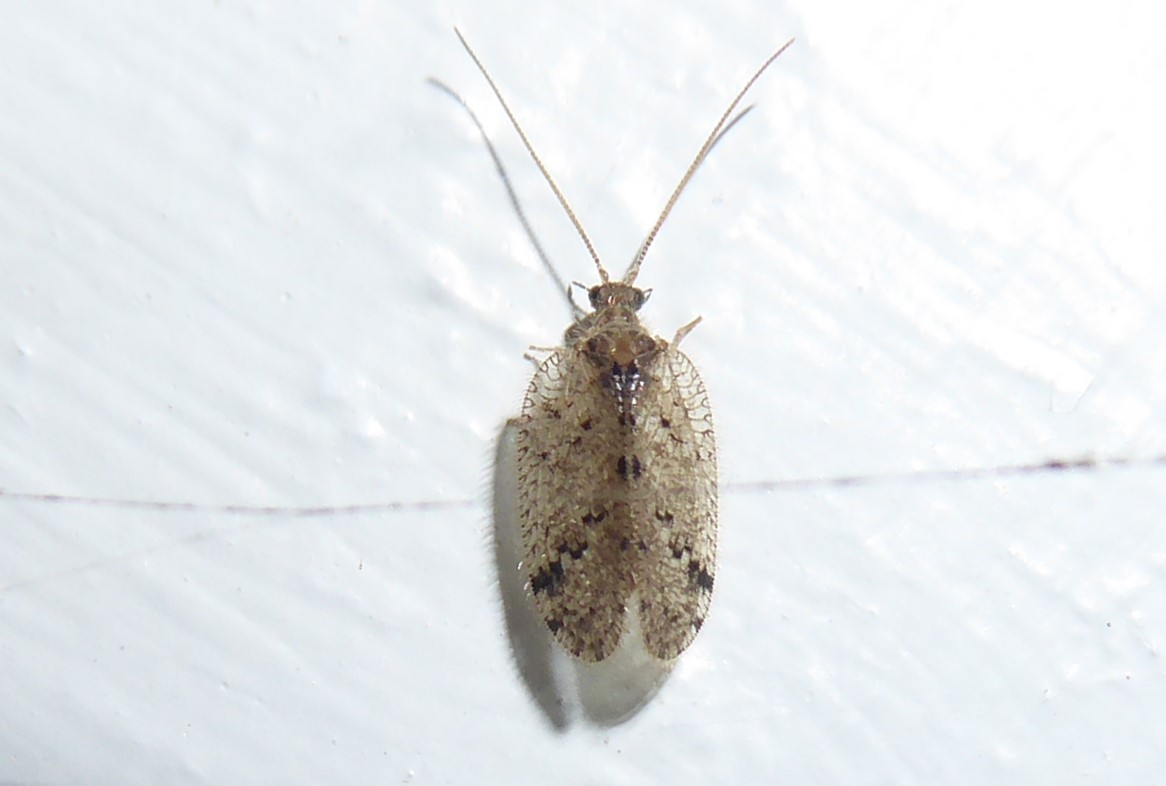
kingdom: Animalia
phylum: Arthropoda
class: Insecta
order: Neuroptera
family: Hemerobiidae
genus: Psectra
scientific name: Psectra nakaharai
